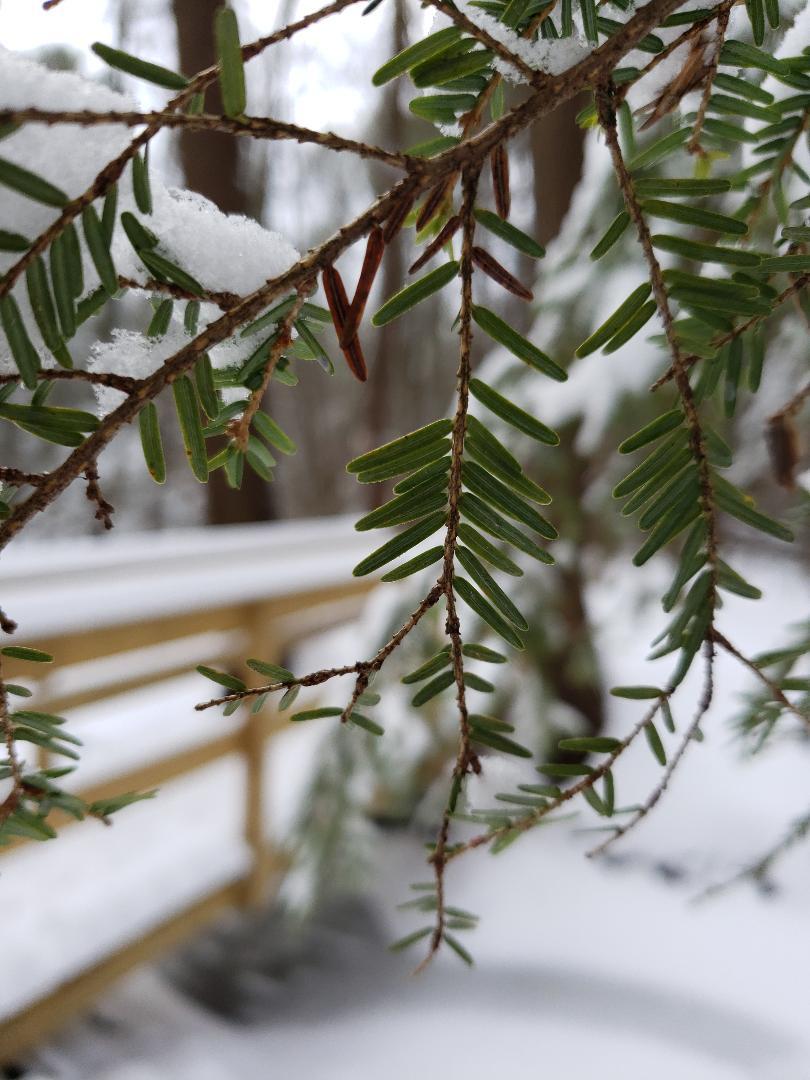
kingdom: Plantae
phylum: Tracheophyta
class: Pinopsida
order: Pinales
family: Pinaceae
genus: Tsuga
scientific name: Tsuga canadensis
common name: Eastern hemlock
